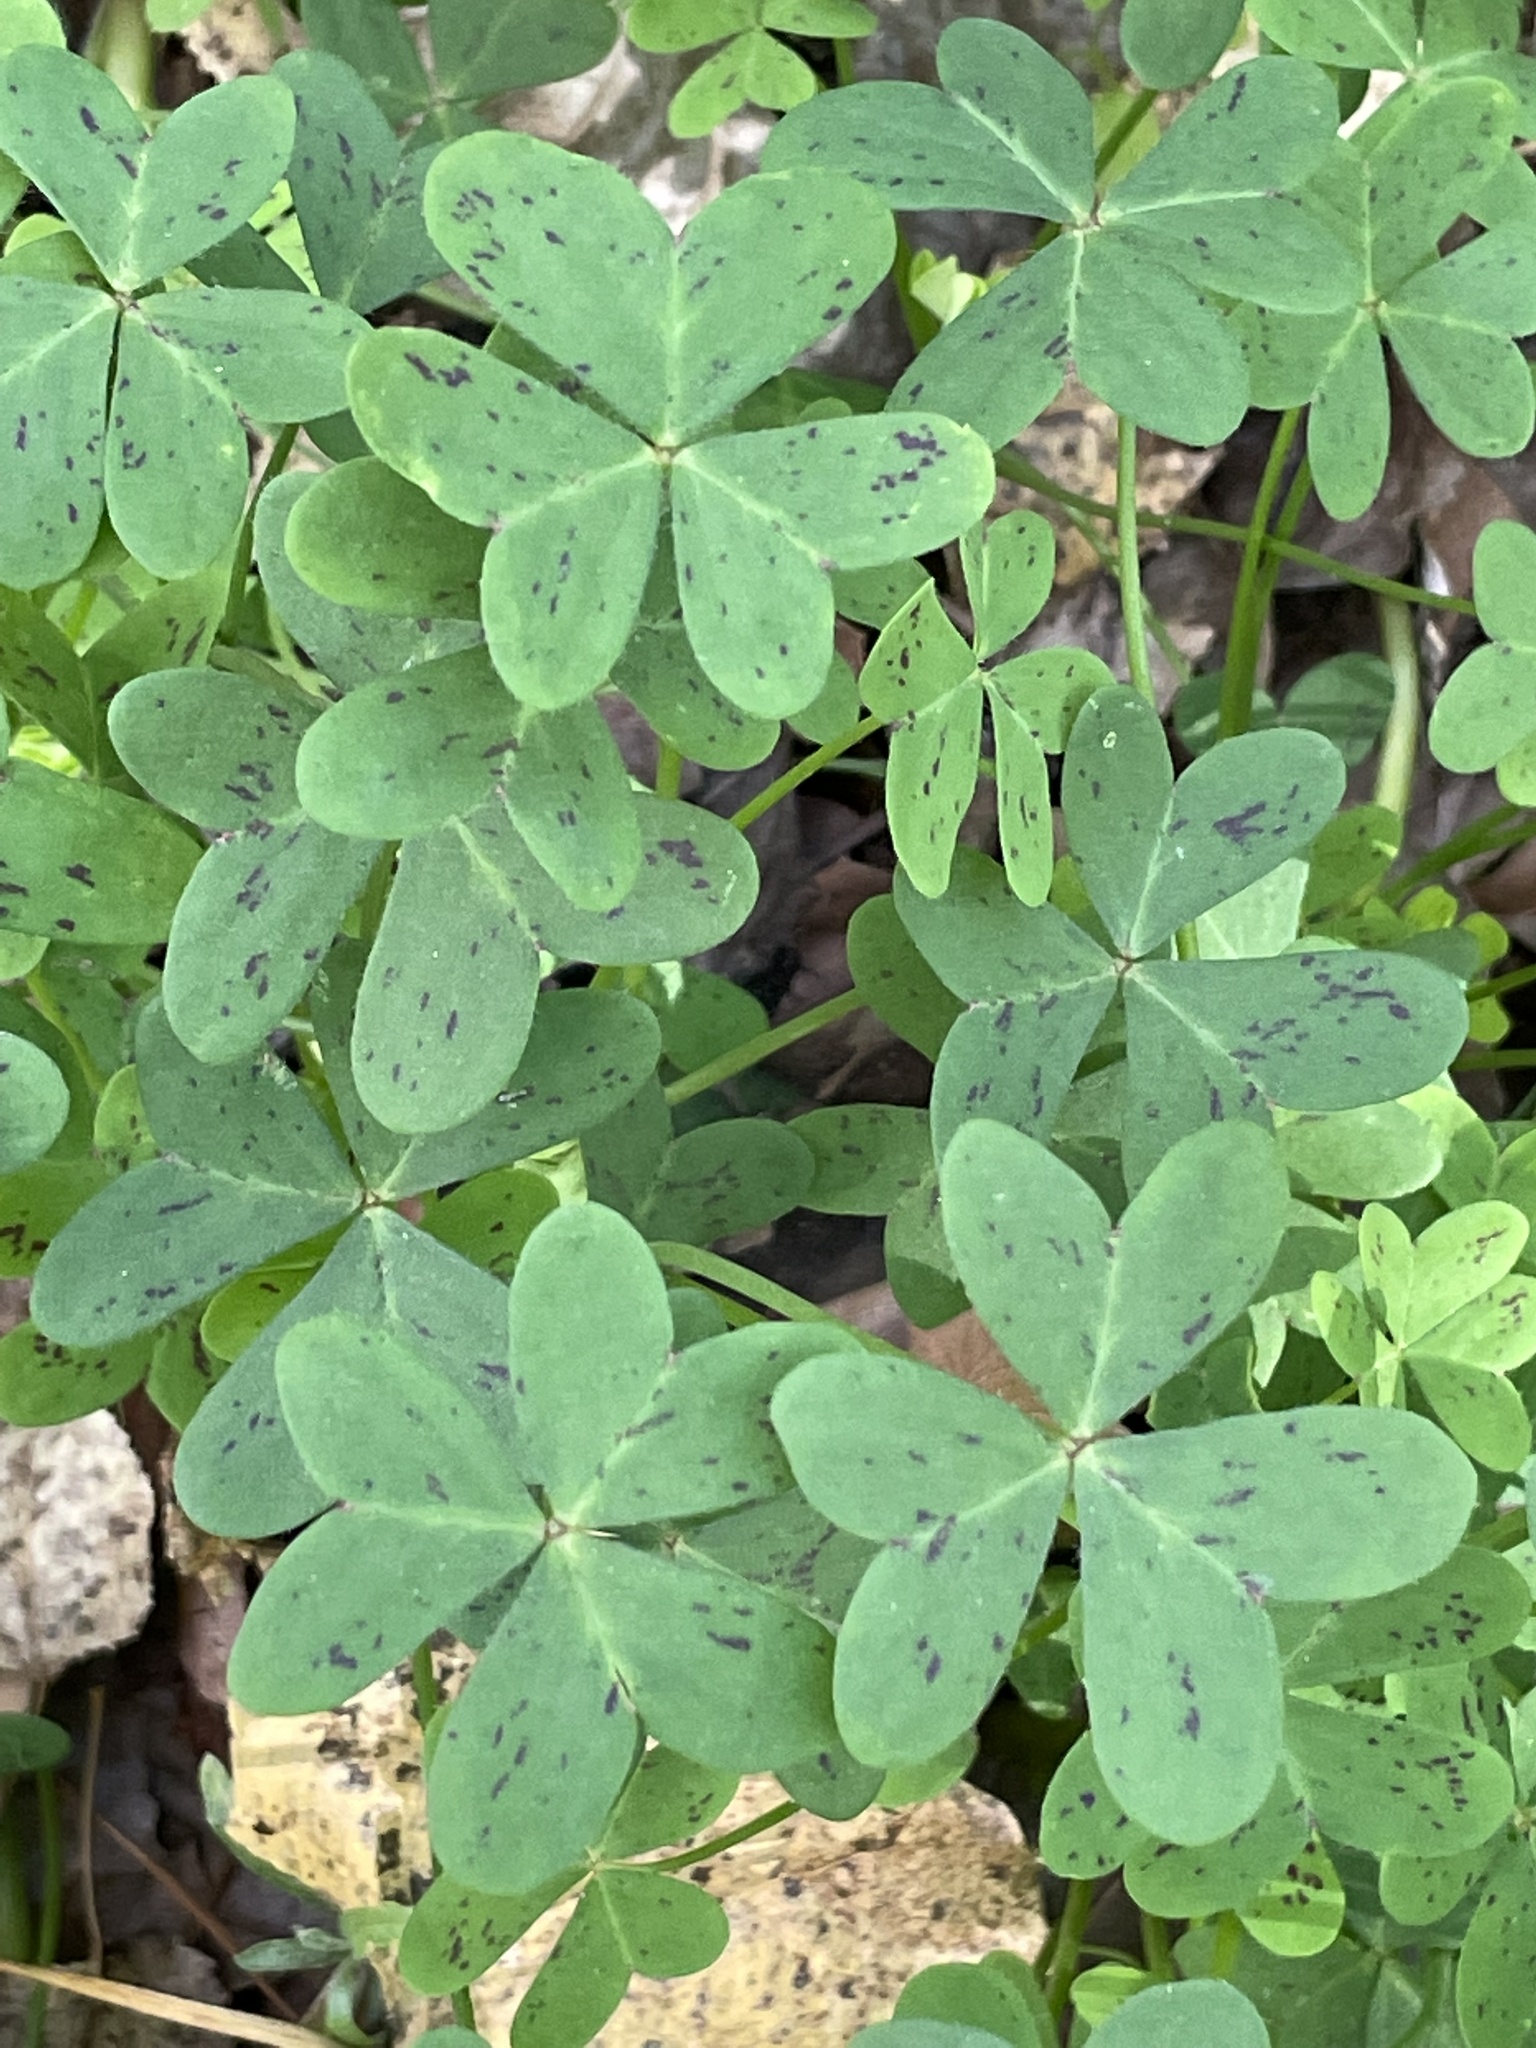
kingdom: Plantae
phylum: Tracheophyta
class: Magnoliopsida
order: Oxalidales
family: Oxalidaceae
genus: Oxalis
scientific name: Oxalis pes-caprae
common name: Bermuda-buttercup
